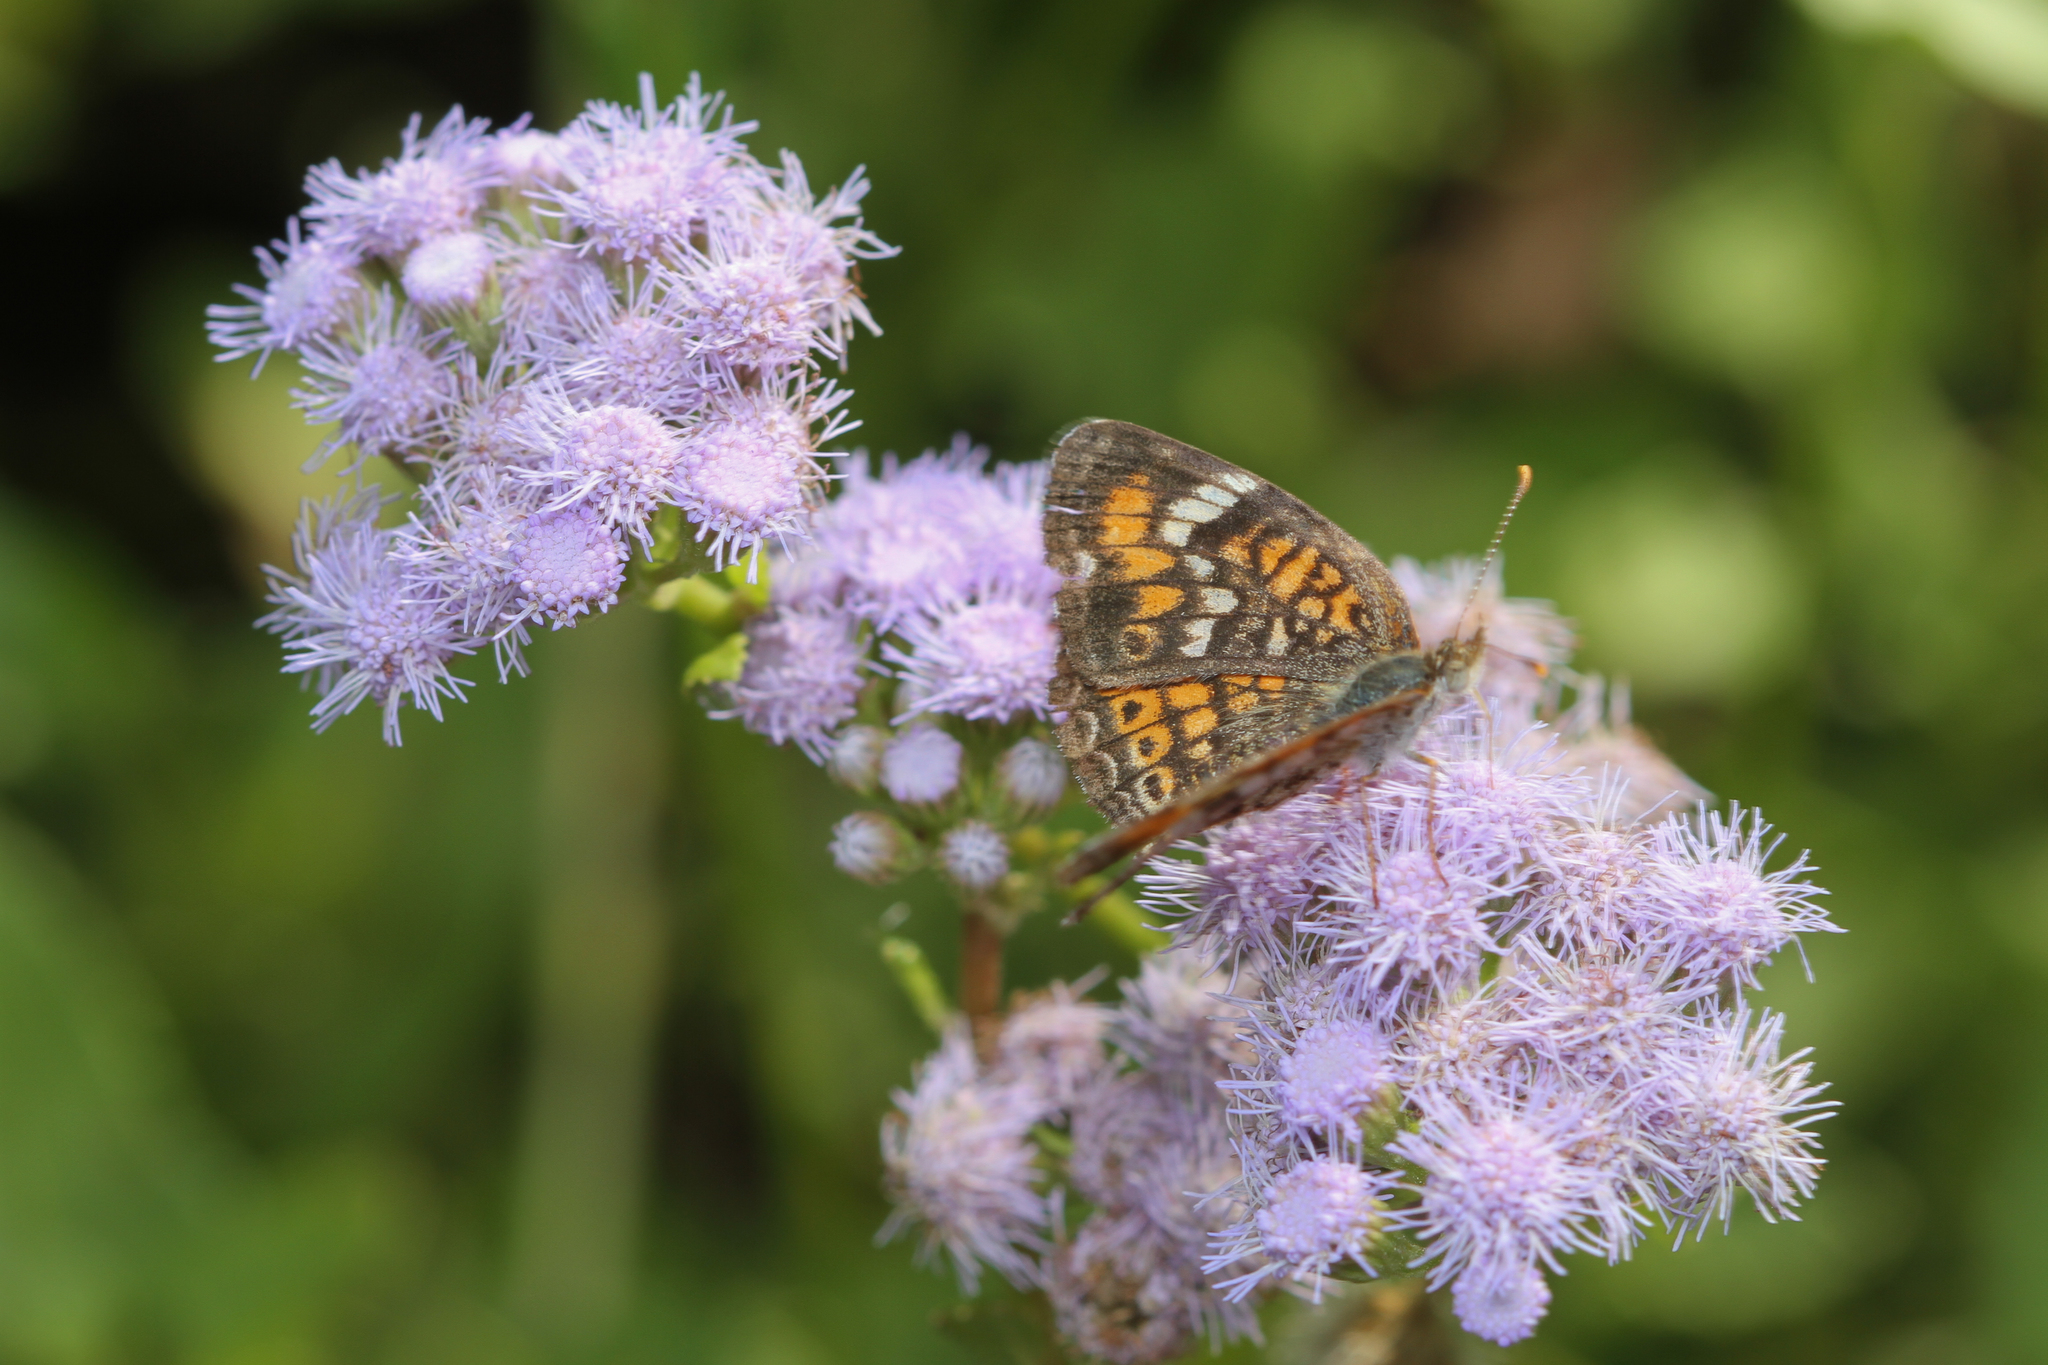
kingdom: Animalia
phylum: Arthropoda
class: Insecta
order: Lepidoptera
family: Nymphalidae
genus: Phyciodes
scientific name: Phyciodes phaon
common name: Phaon crescent
